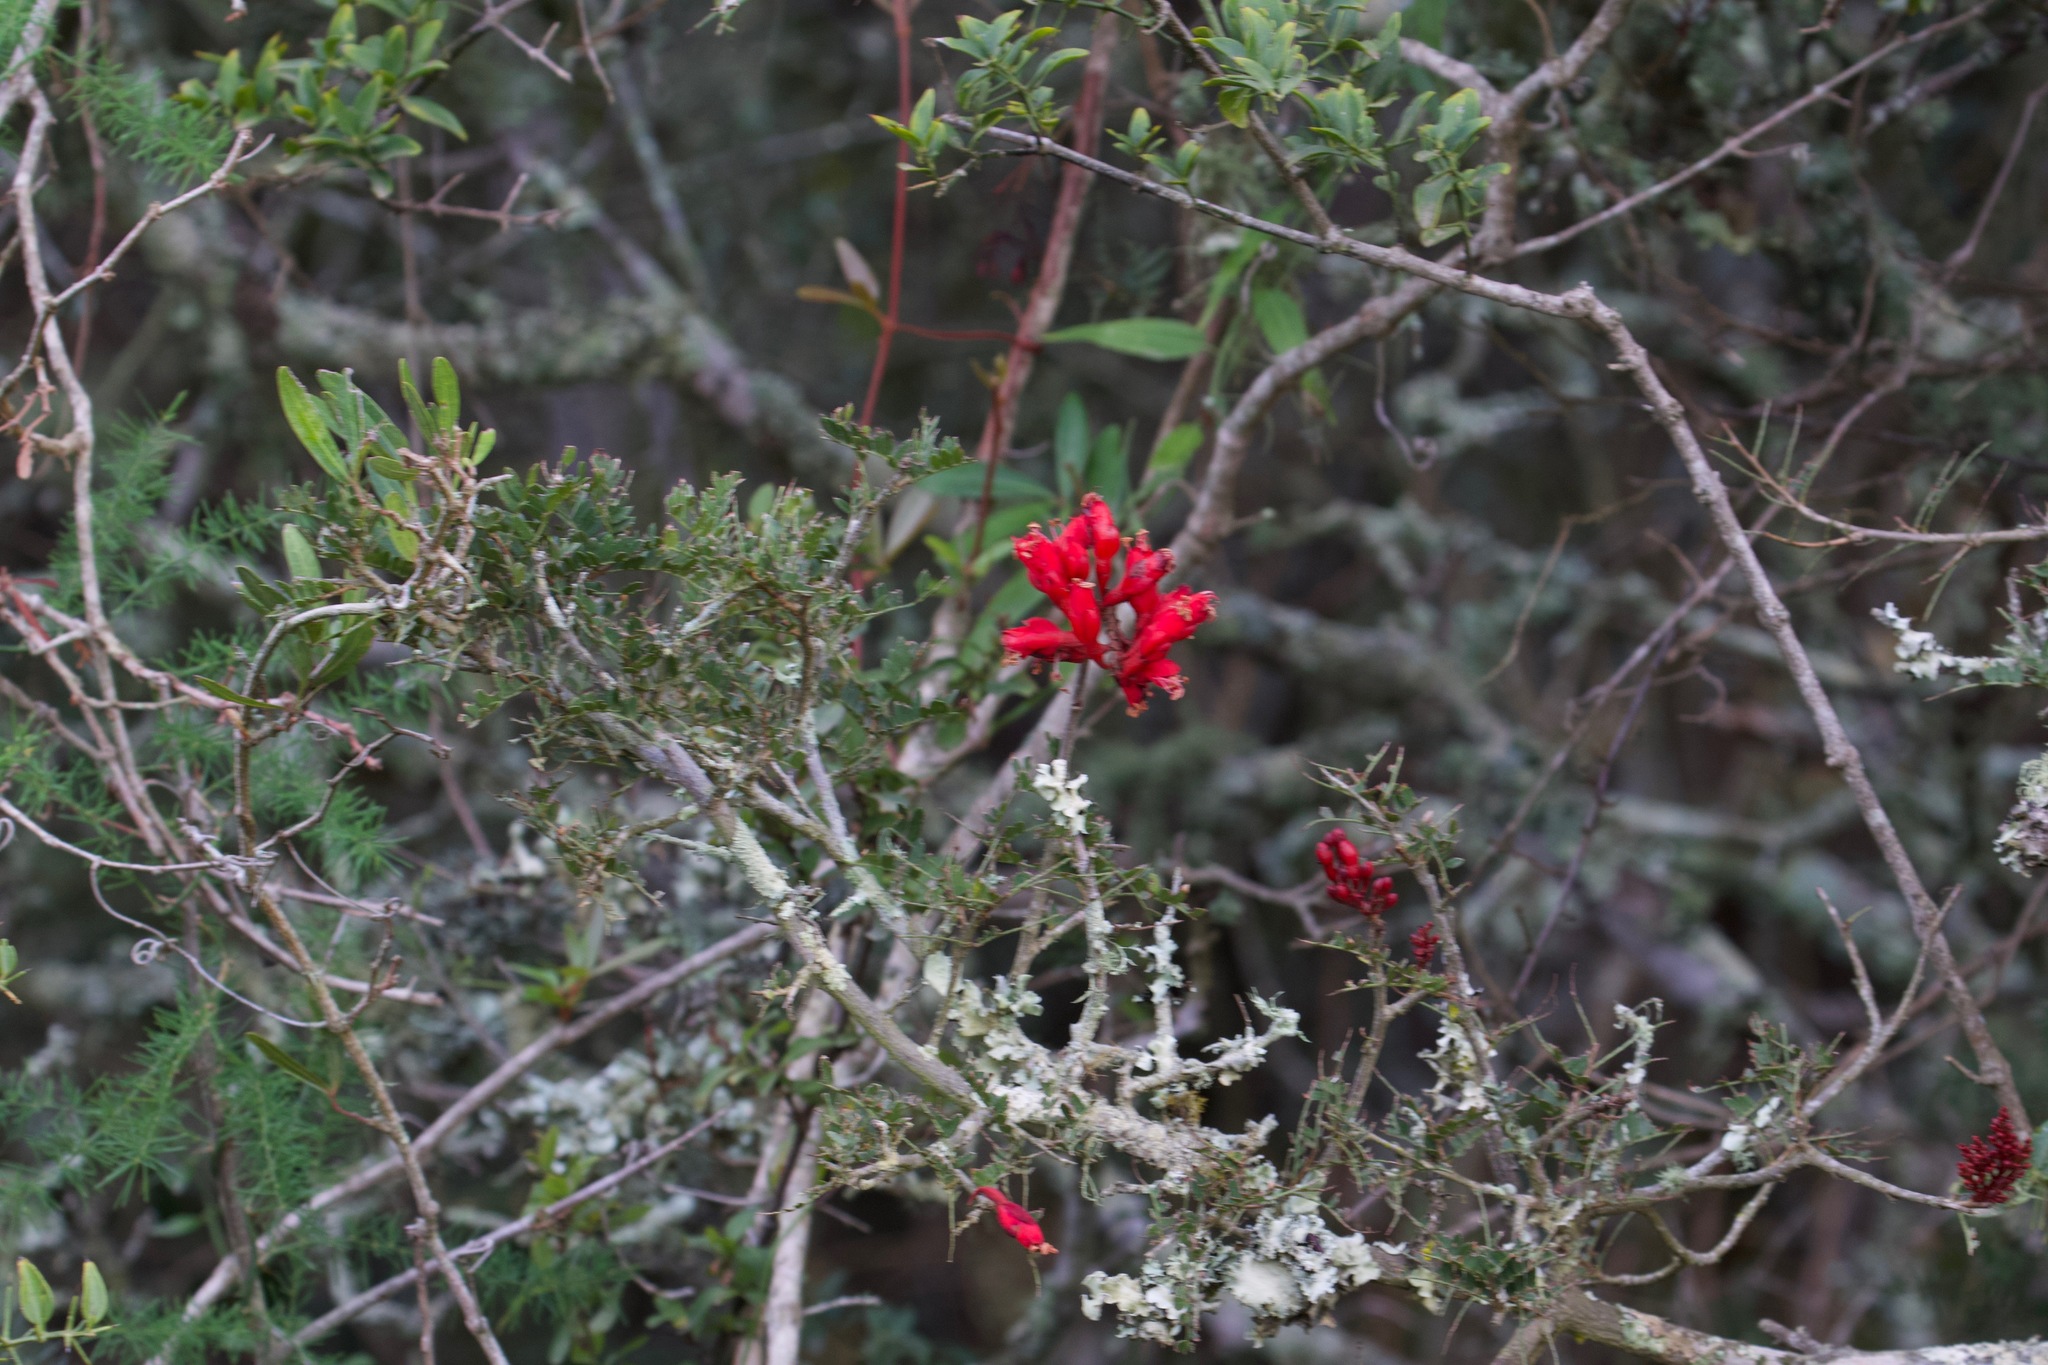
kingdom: Plantae
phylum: Tracheophyta
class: Magnoliopsida
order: Fabales
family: Fabaceae
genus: Schotia
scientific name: Schotia afra
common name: Hottentot's bean
